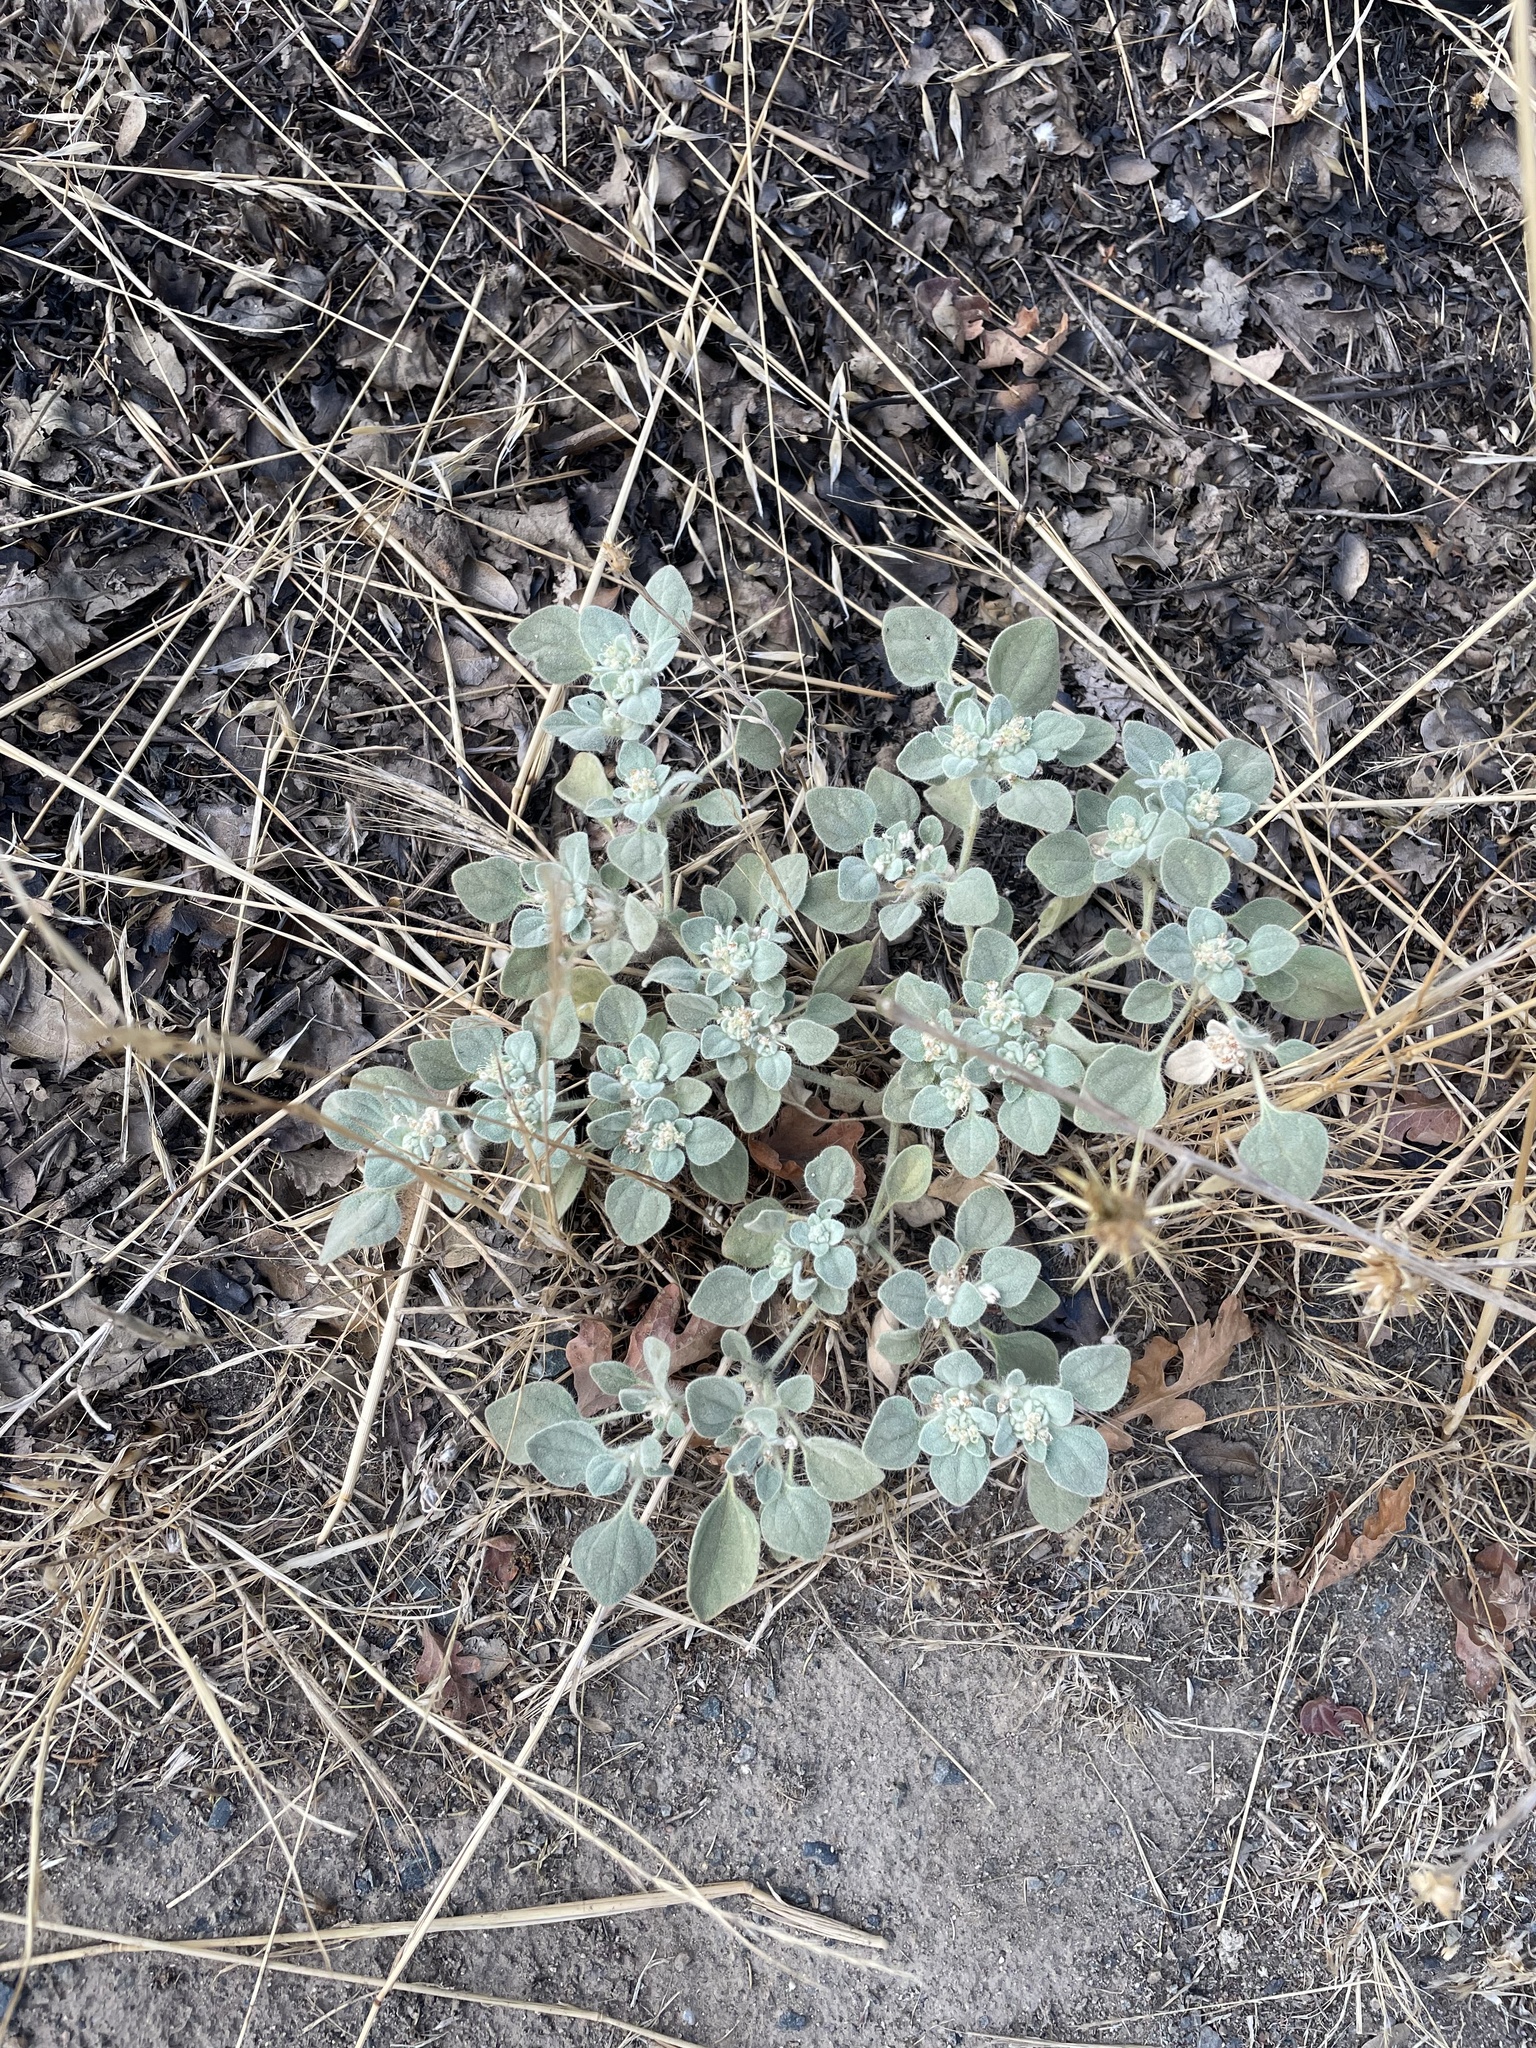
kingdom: Plantae
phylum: Tracheophyta
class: Magnoliopsida
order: Malpighiales
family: Euphorbiaceae
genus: Croton
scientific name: Croton setiger
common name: Dove weed
